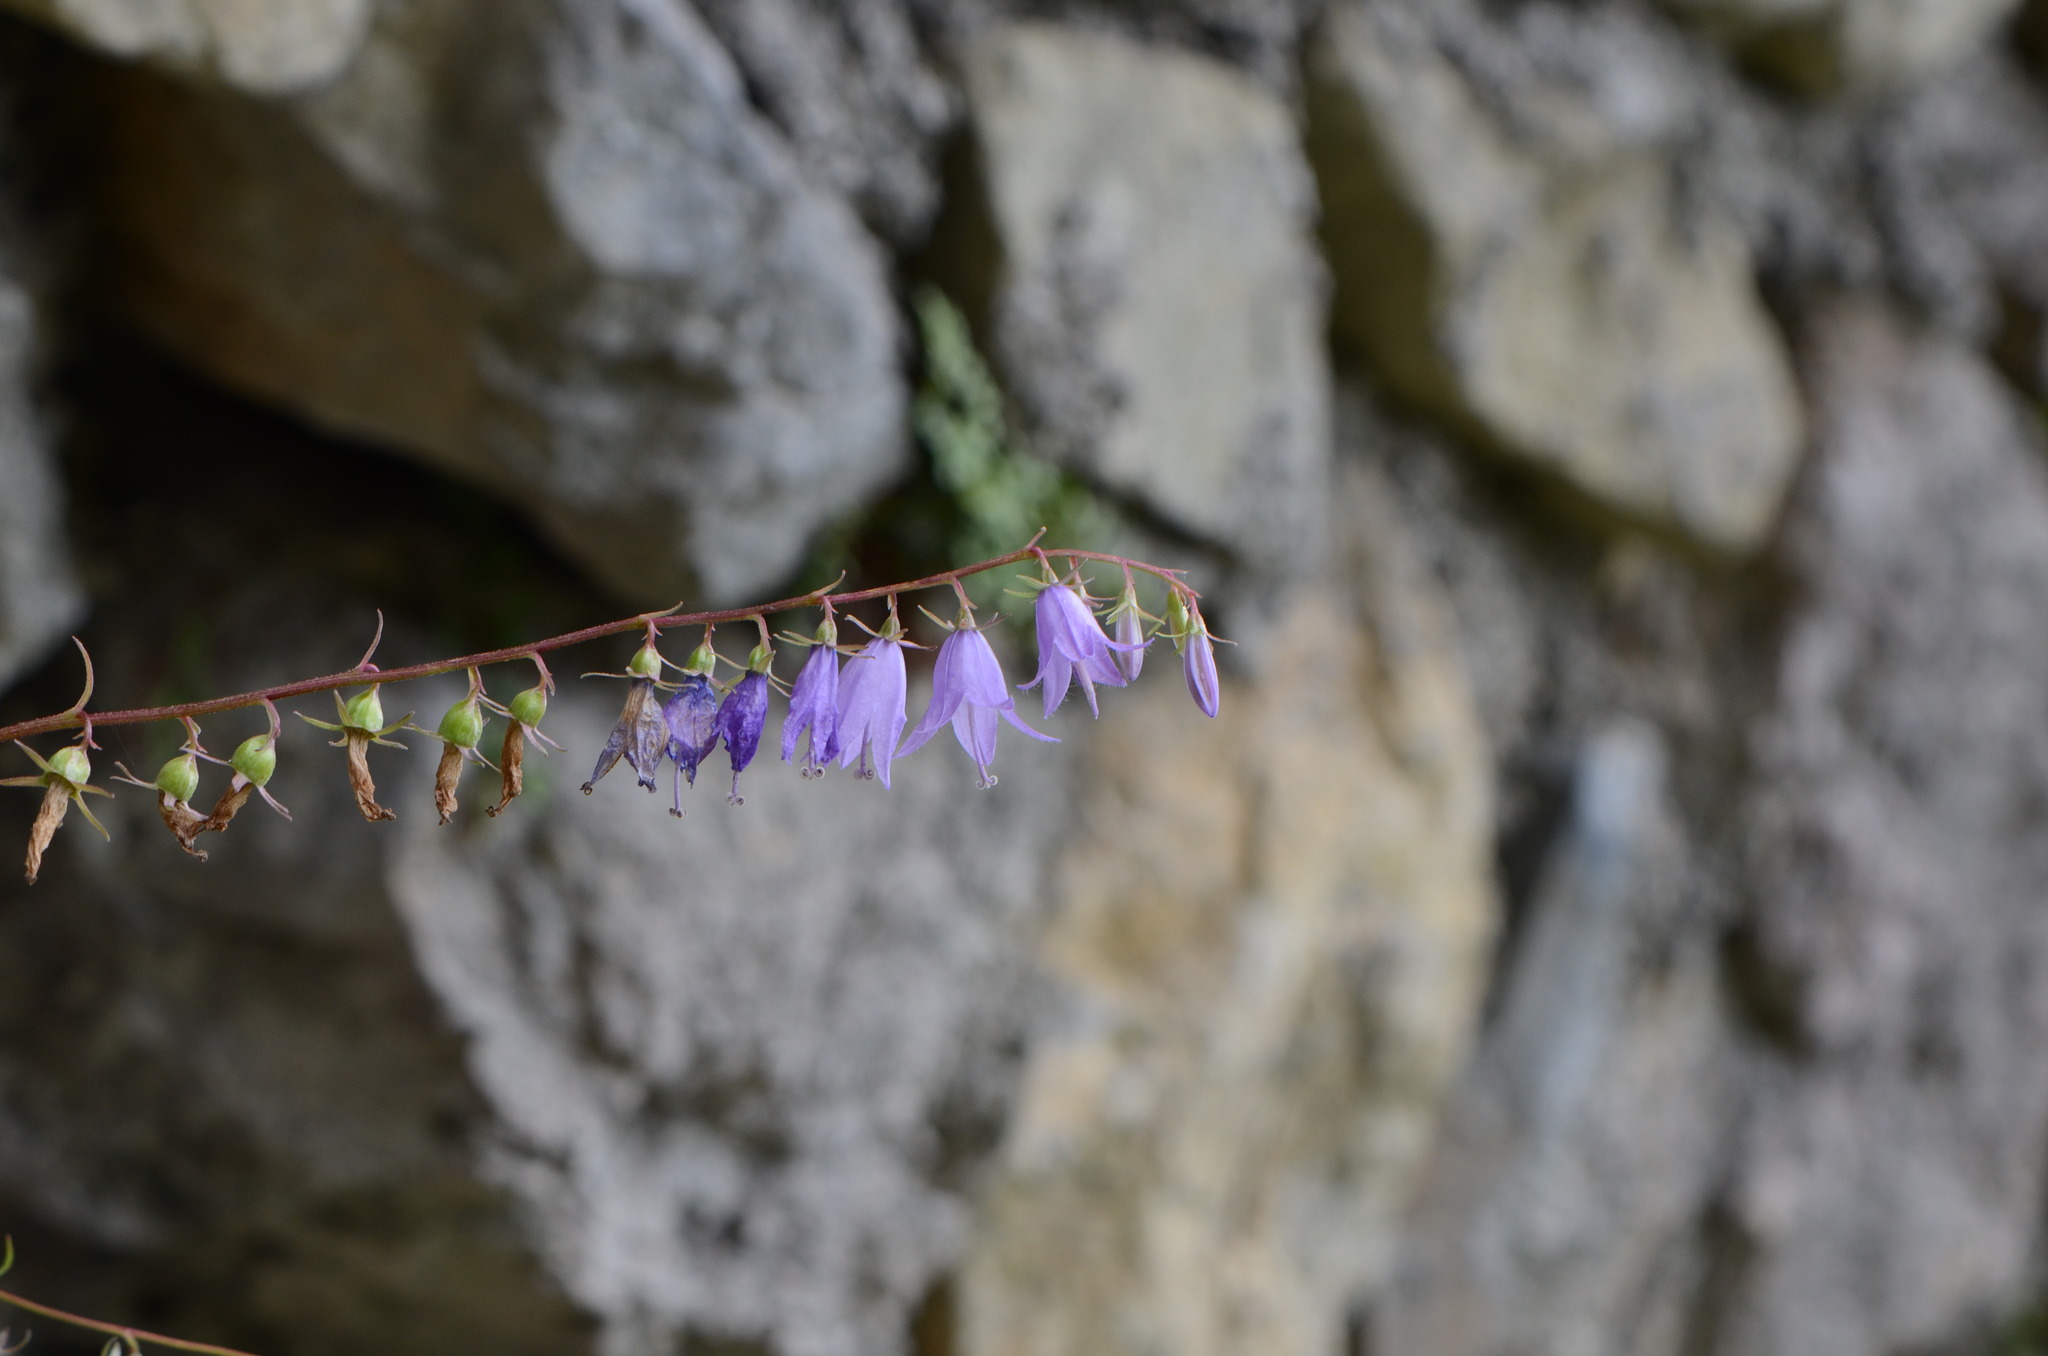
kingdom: Plantae
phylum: Tracheophyta
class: Magnoliopsida
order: Asterales
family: Campanulaceae
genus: Campanula
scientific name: Campanula rapunculoides
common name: Creeping bellflower
